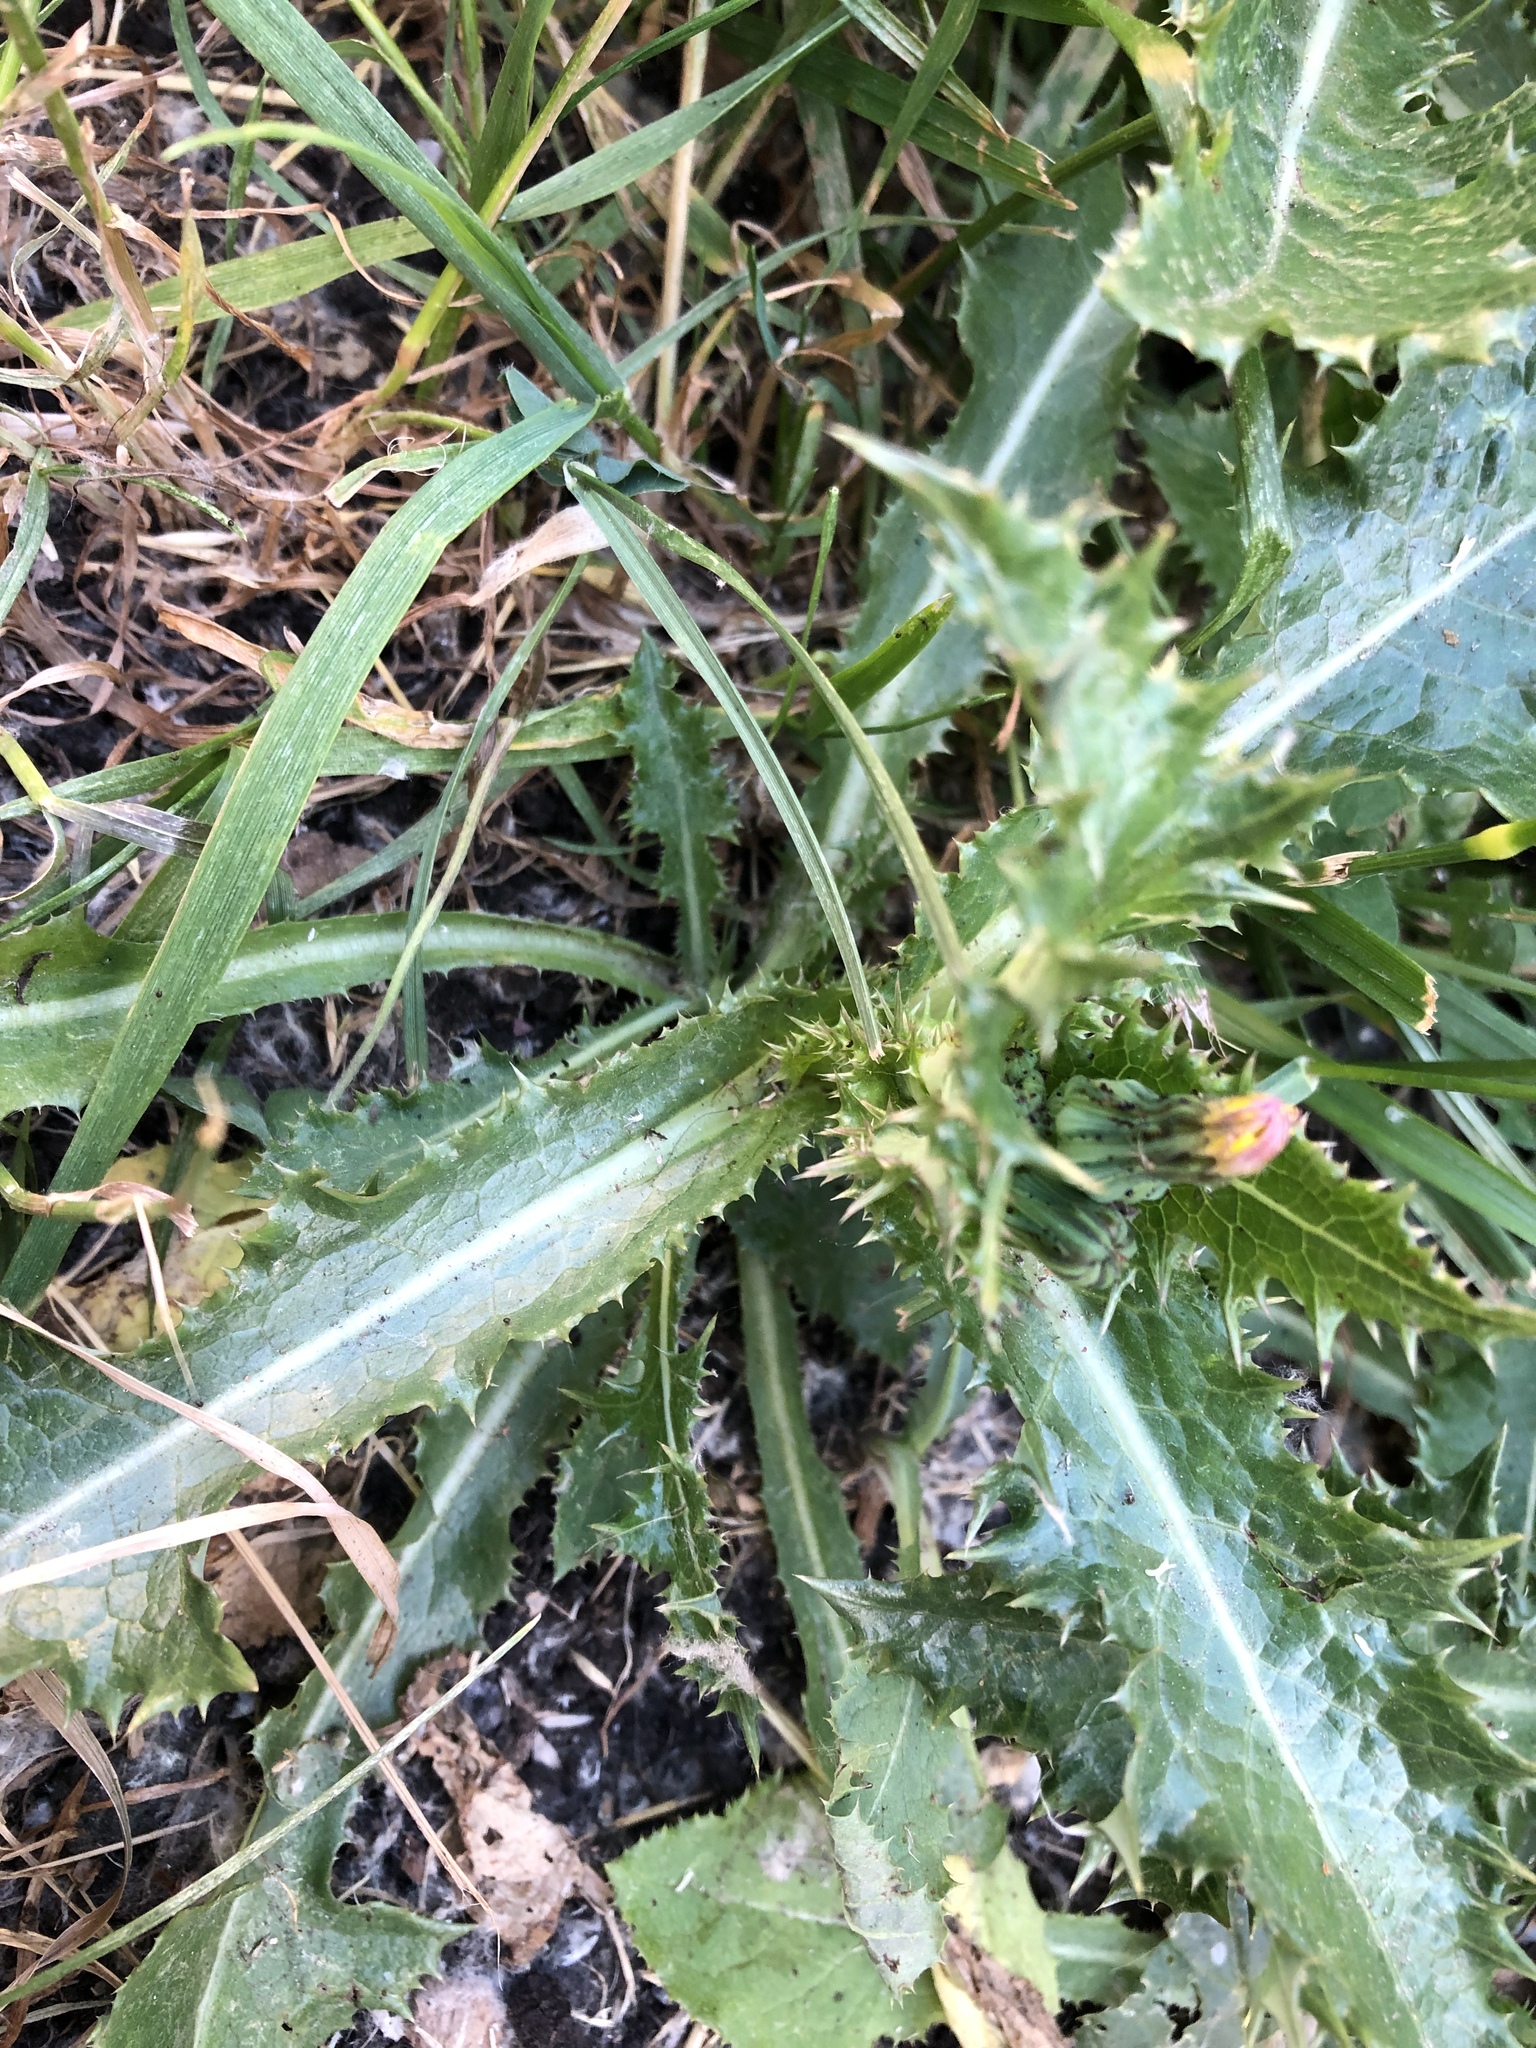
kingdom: Plantae
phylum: Tracheophyta
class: Magnoliopsida
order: Asterales
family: Asteraceae
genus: Sonchus
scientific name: Sonchus asper
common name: Prickly sow-thistle
